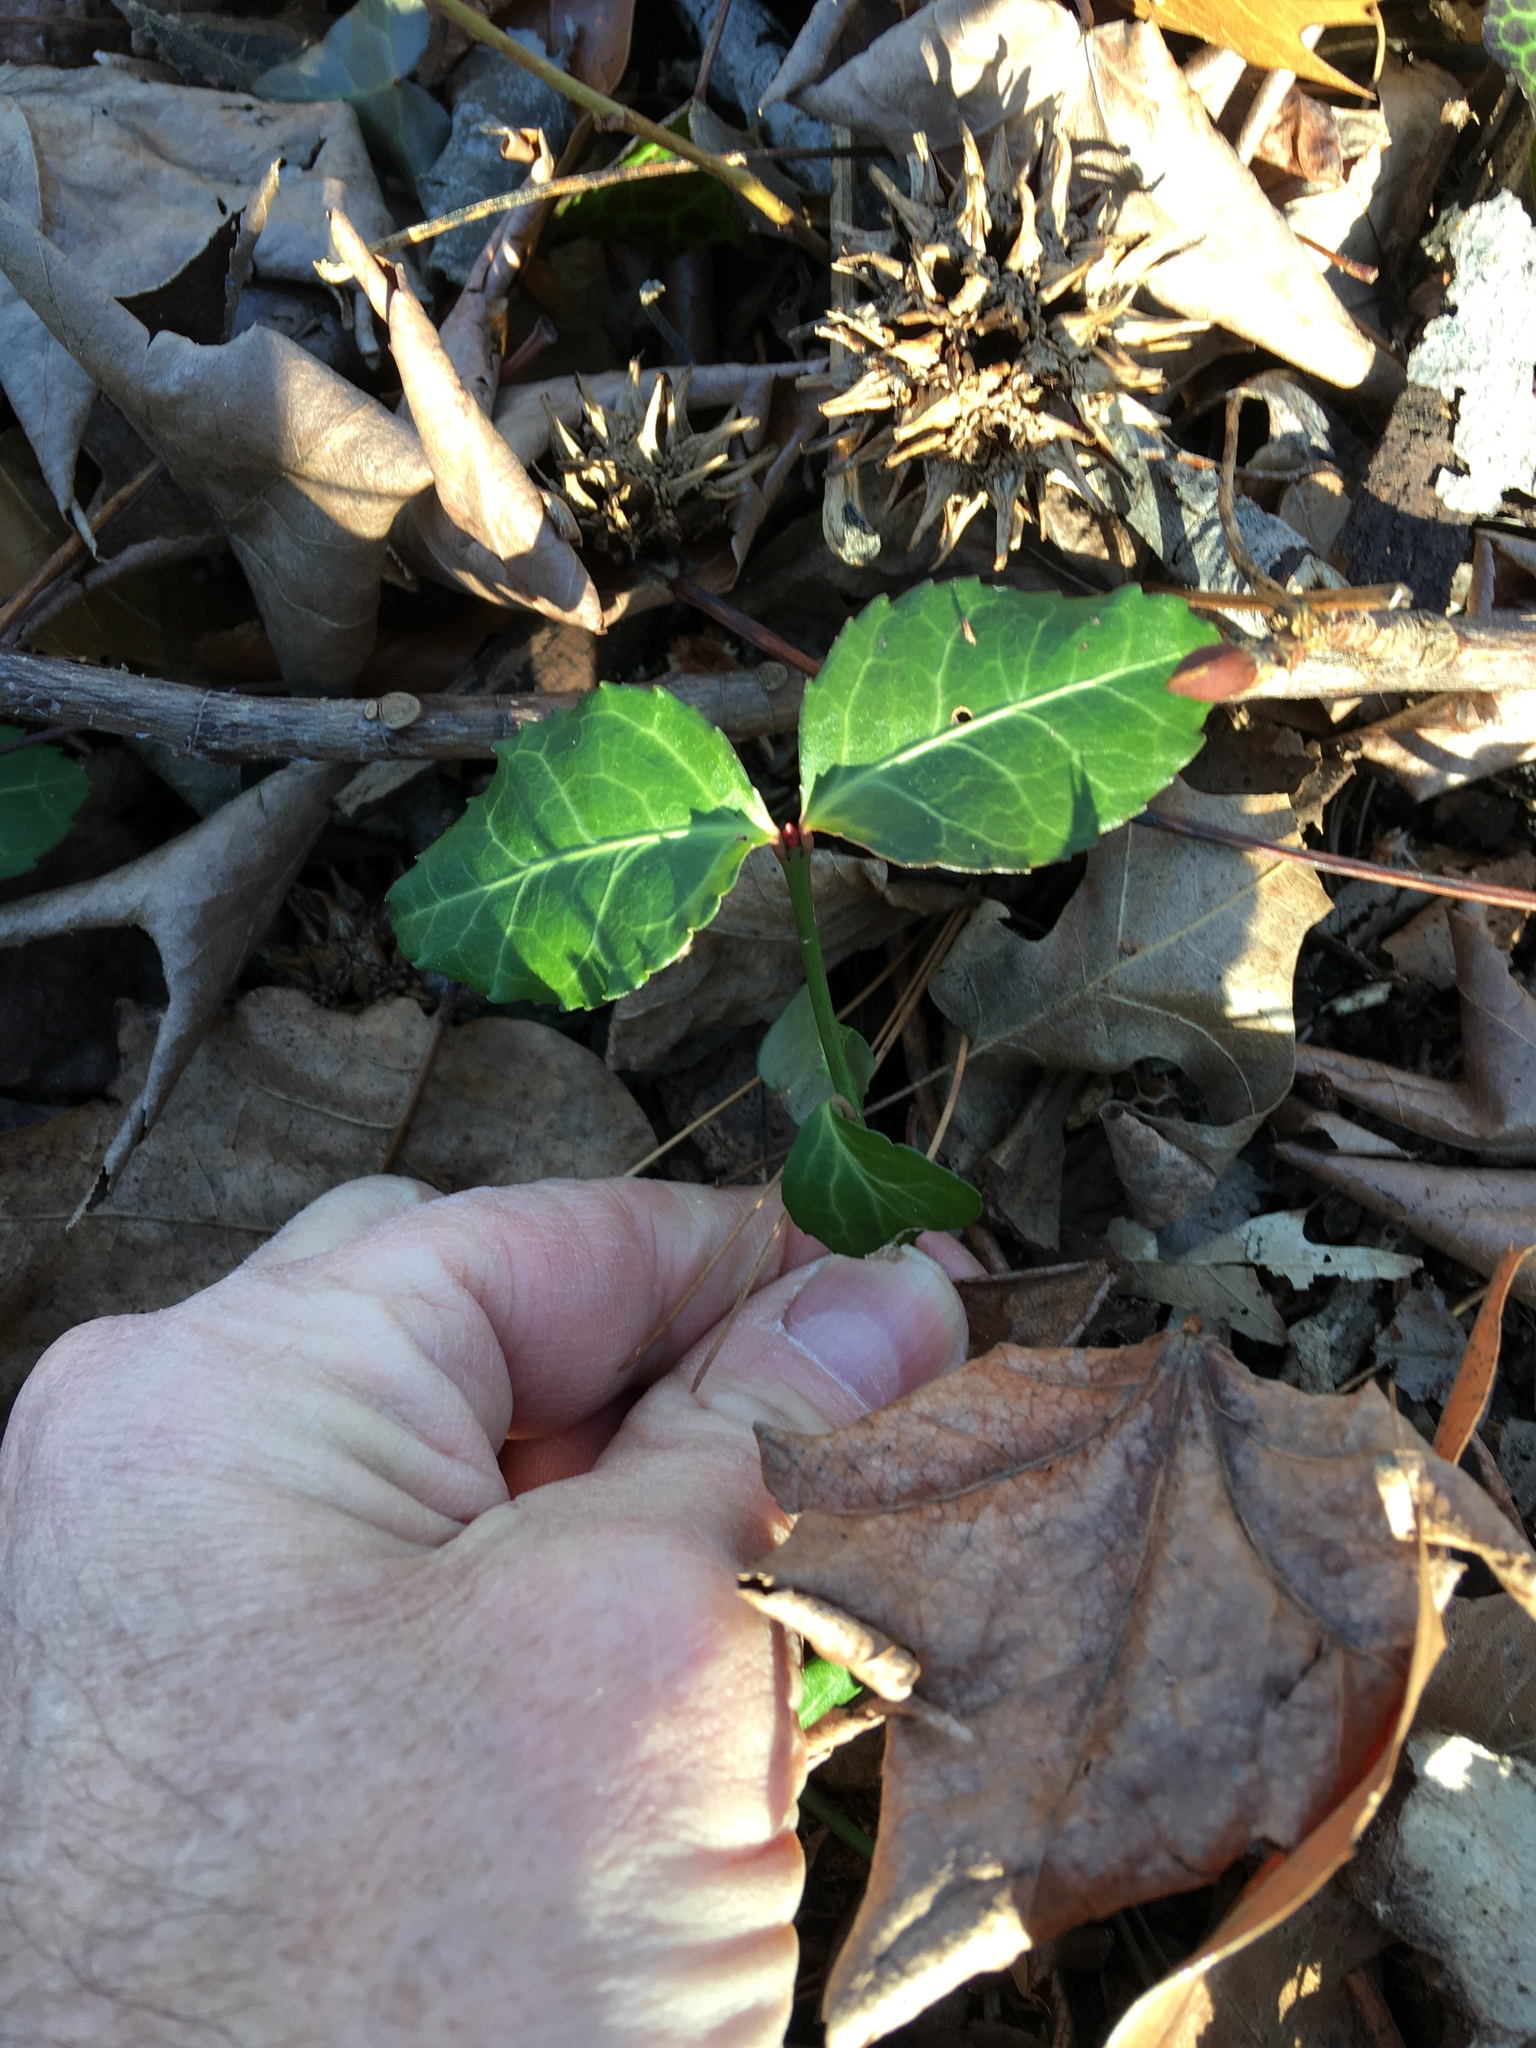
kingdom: Plantae
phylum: Tracheophyta
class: Magnoliopsida
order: Celastrales
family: Celastraceae
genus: Euonymus
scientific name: Euonymus fortunei
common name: Climbing euonymus
